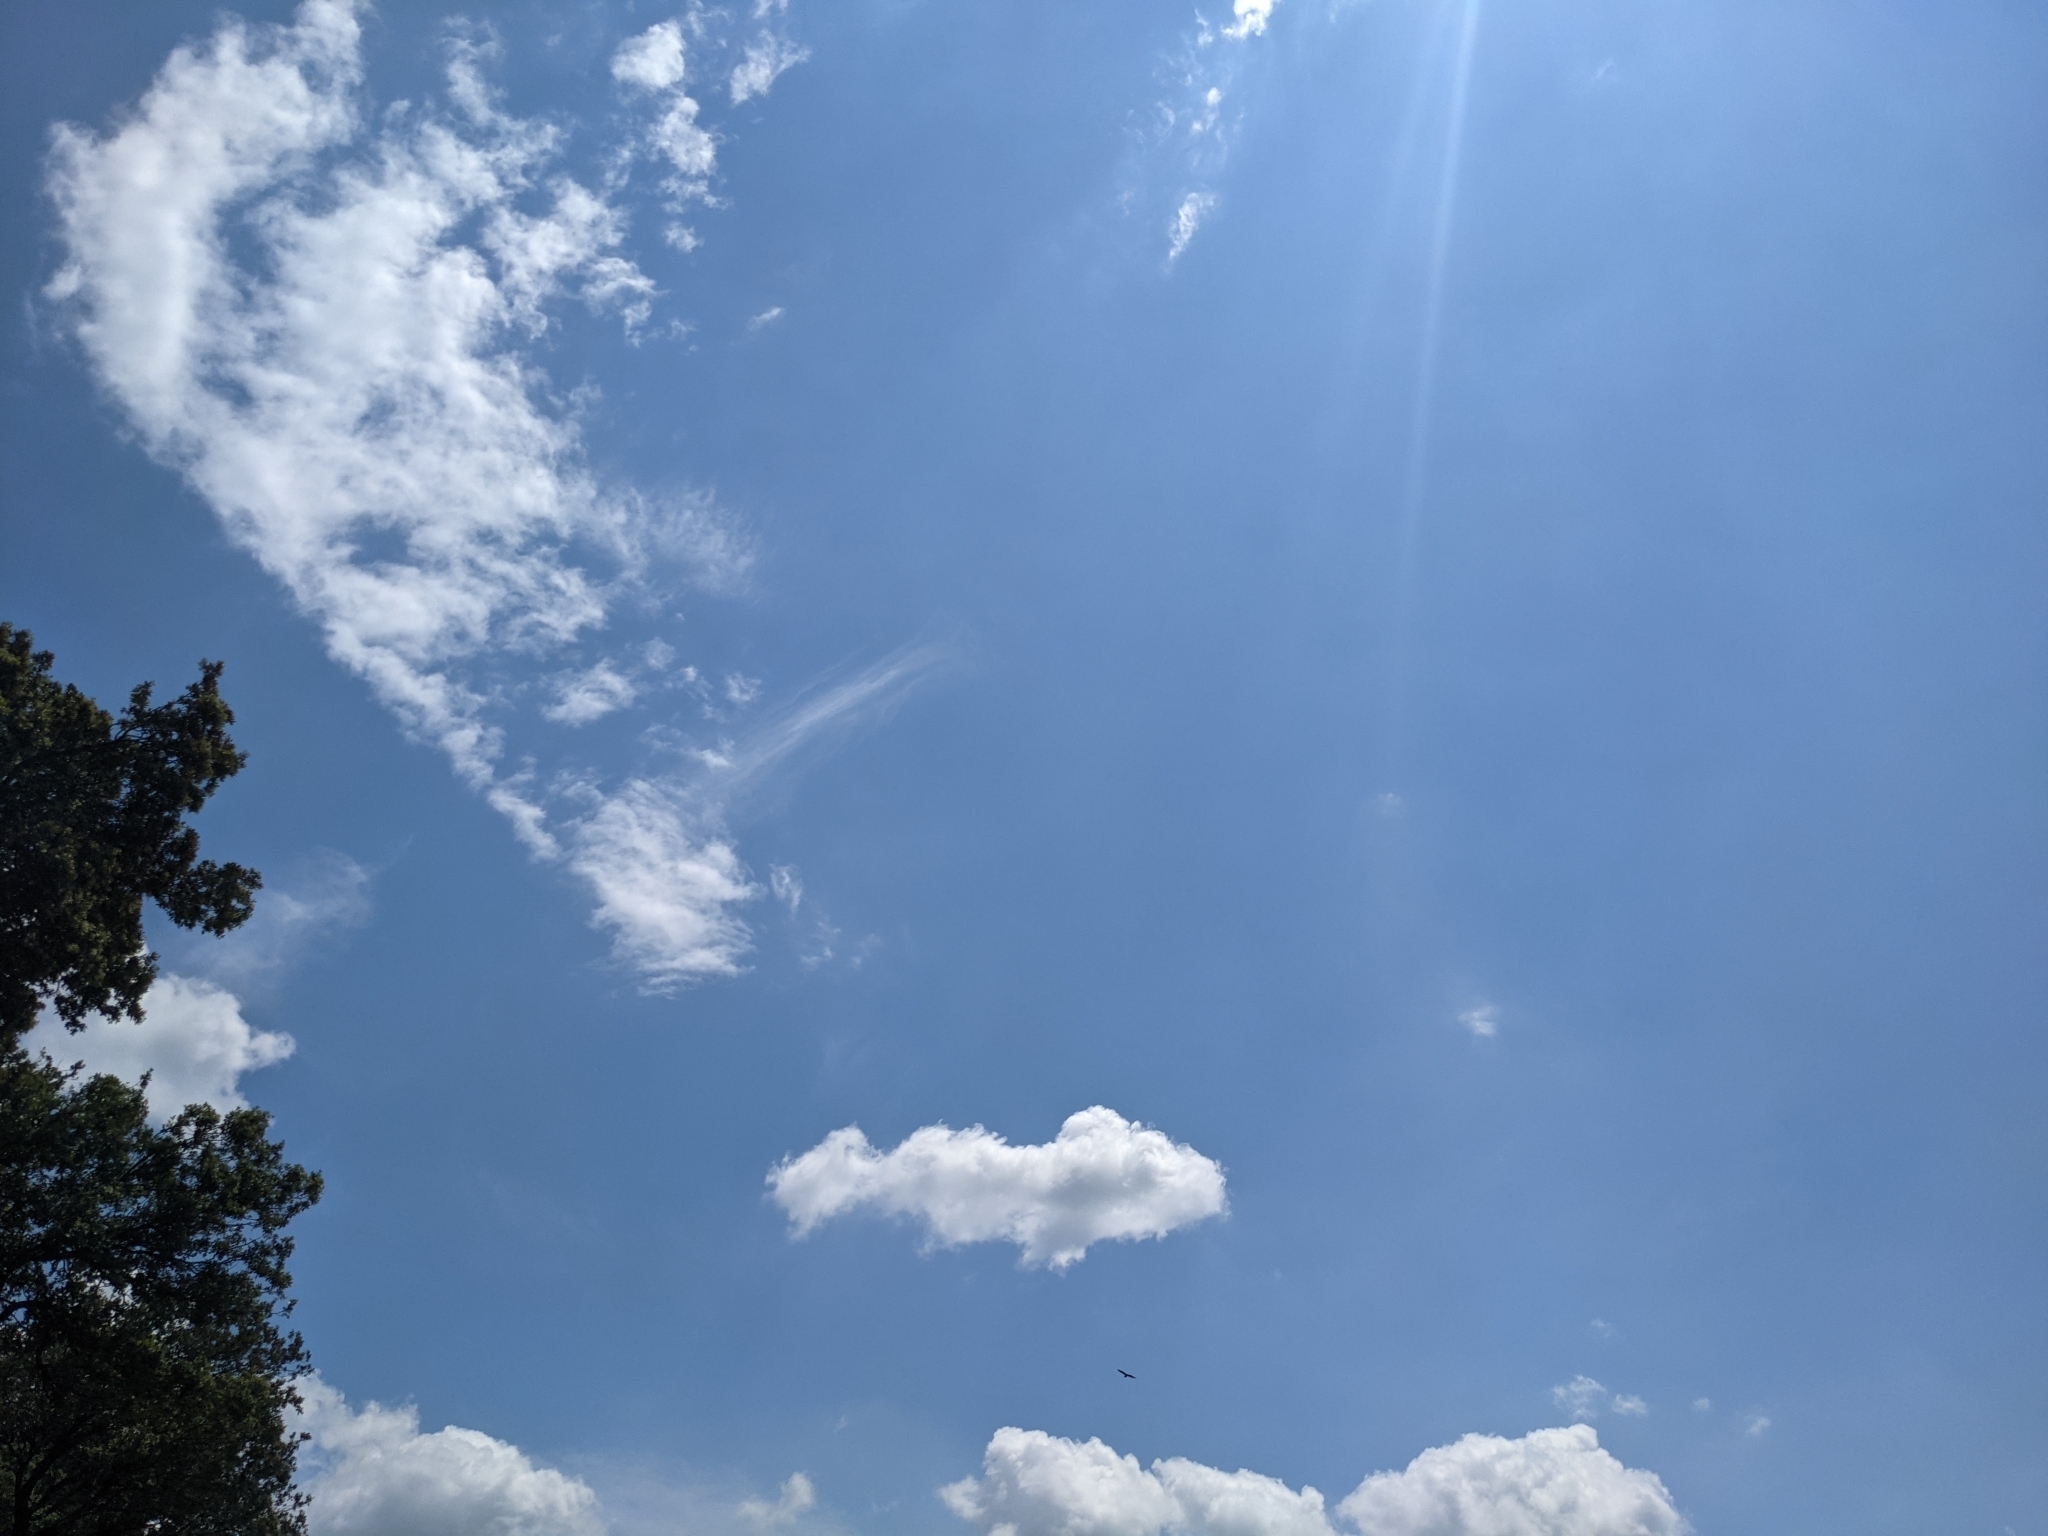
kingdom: Animalia
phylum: Chordata
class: Aves
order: Accipitriformes
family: Accipitridae
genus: Gypaetus
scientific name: Gypaetus barbatus
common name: Bearded vulture
